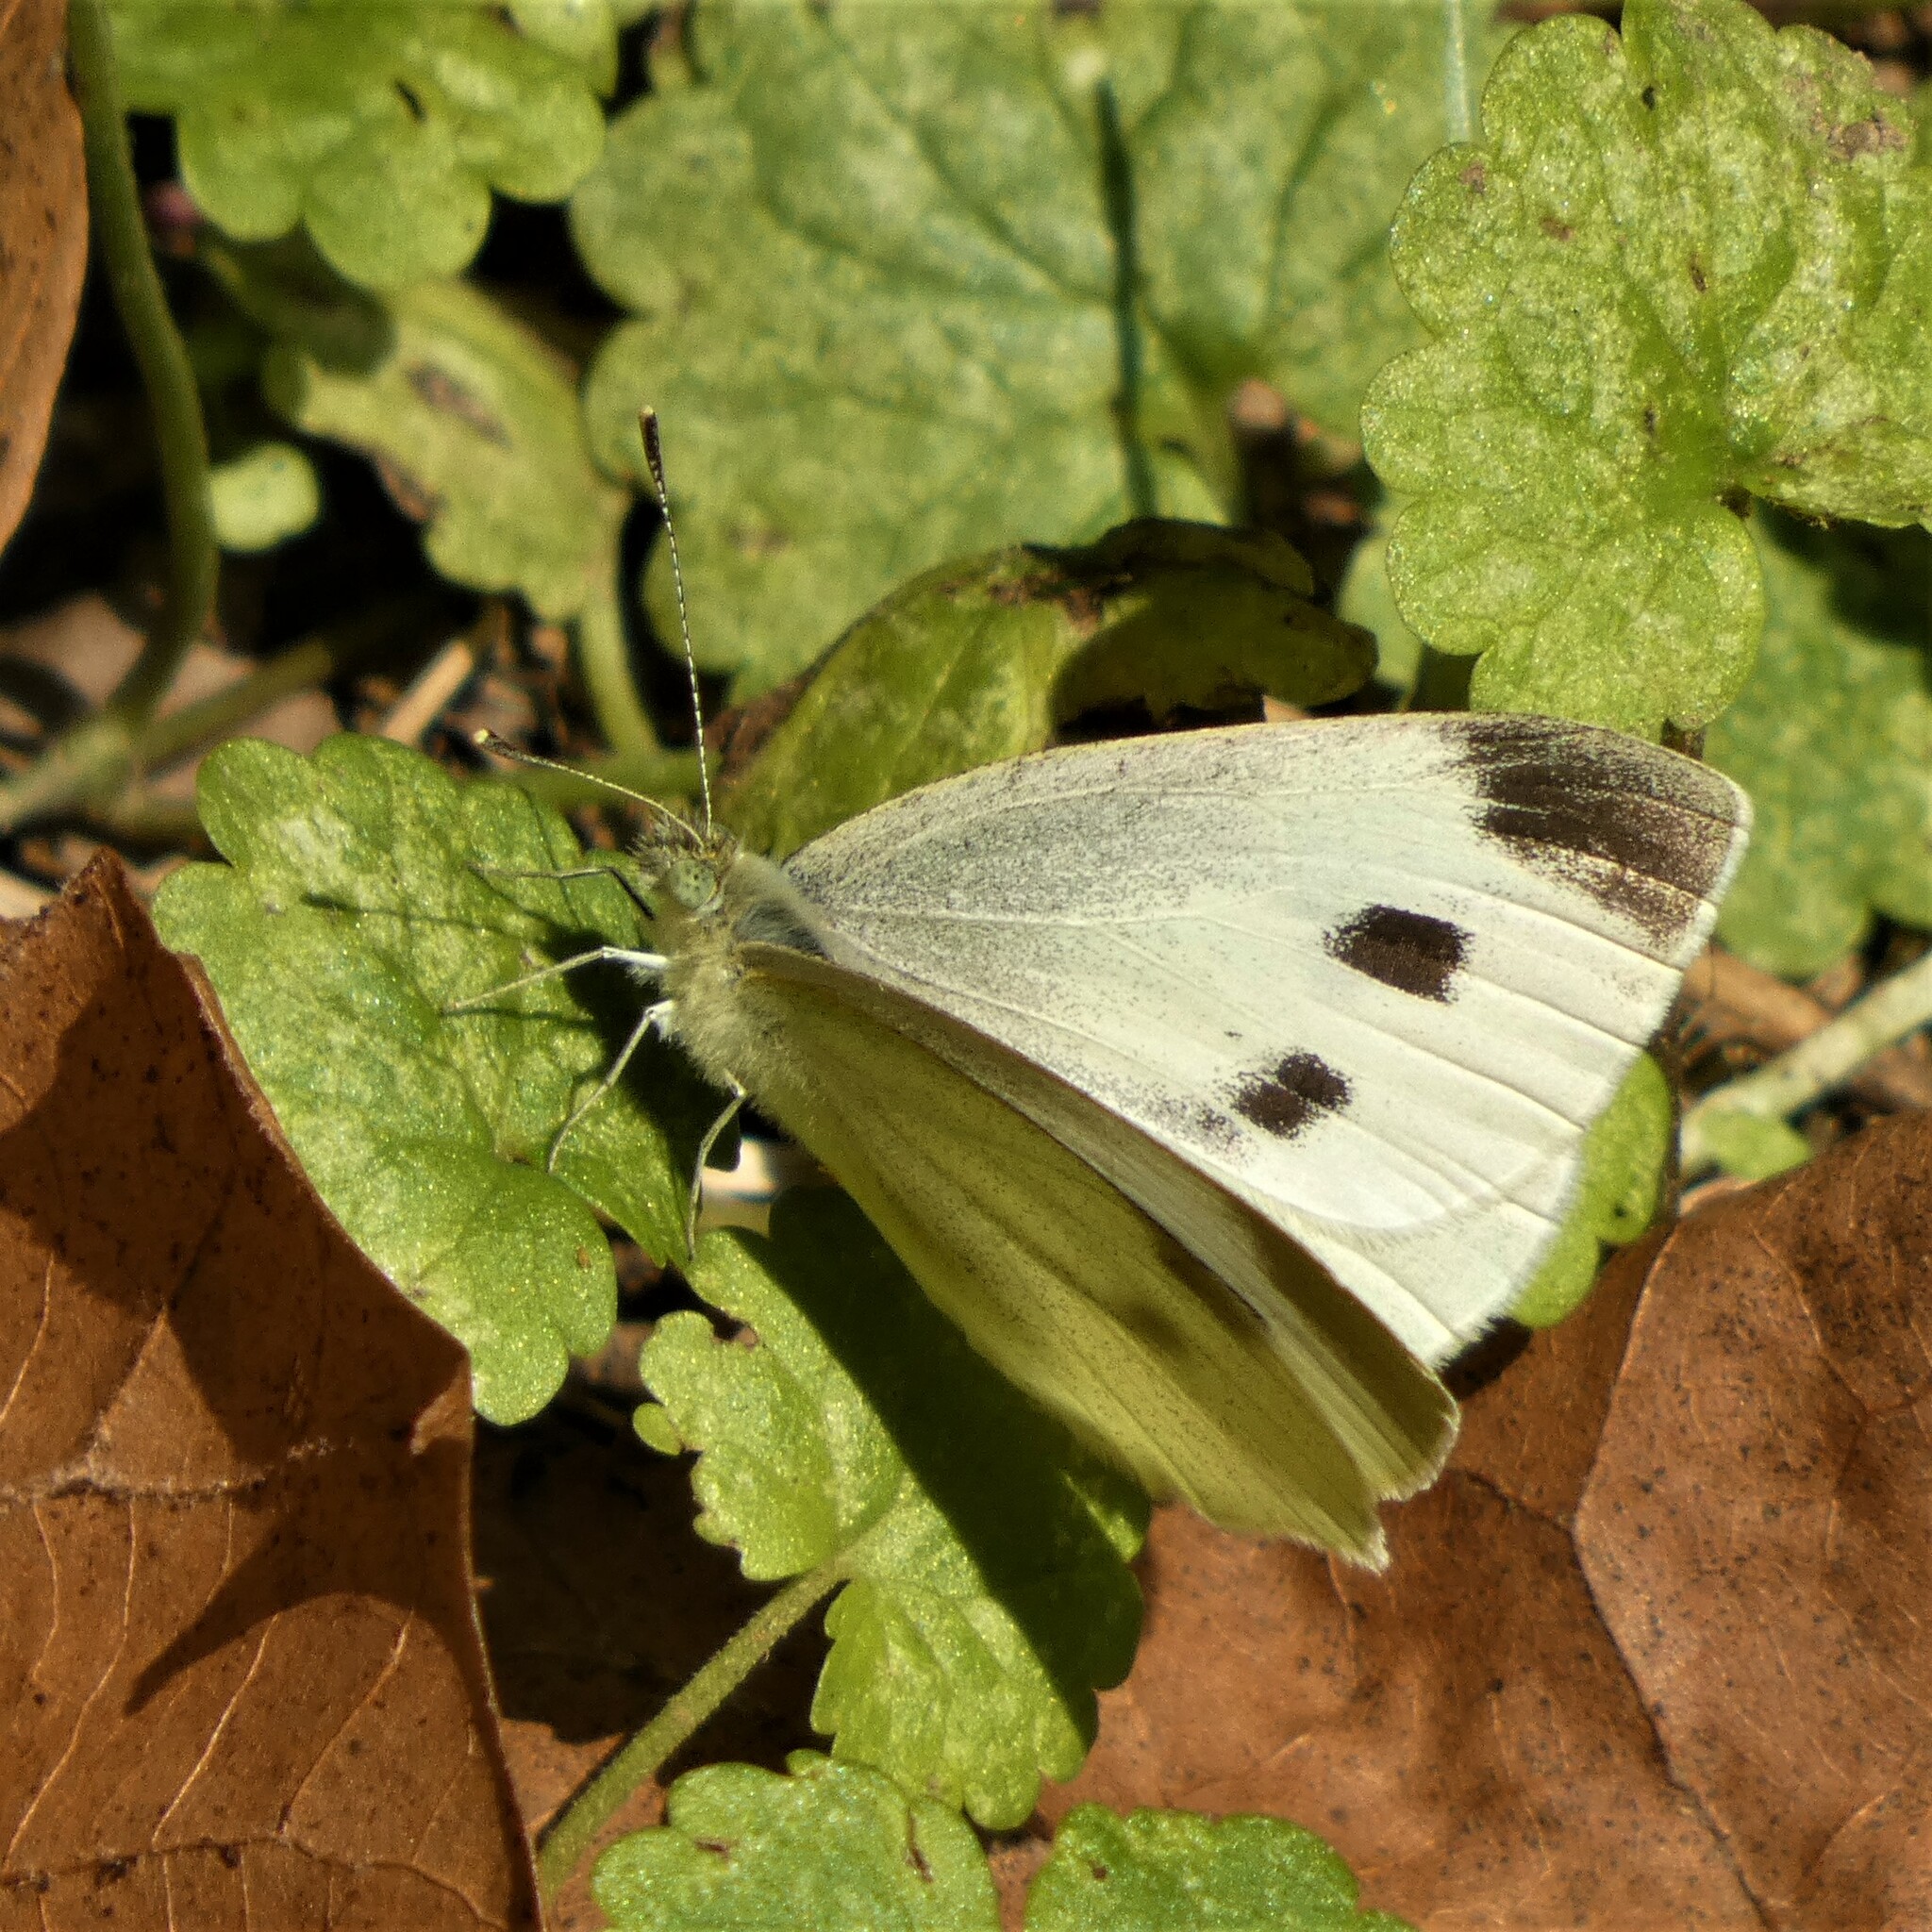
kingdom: Animalia
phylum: Arthropoda
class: Insecta
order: Lepidoptera
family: Pieridae
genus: Pieris
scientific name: Pieris rapae
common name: Small white
